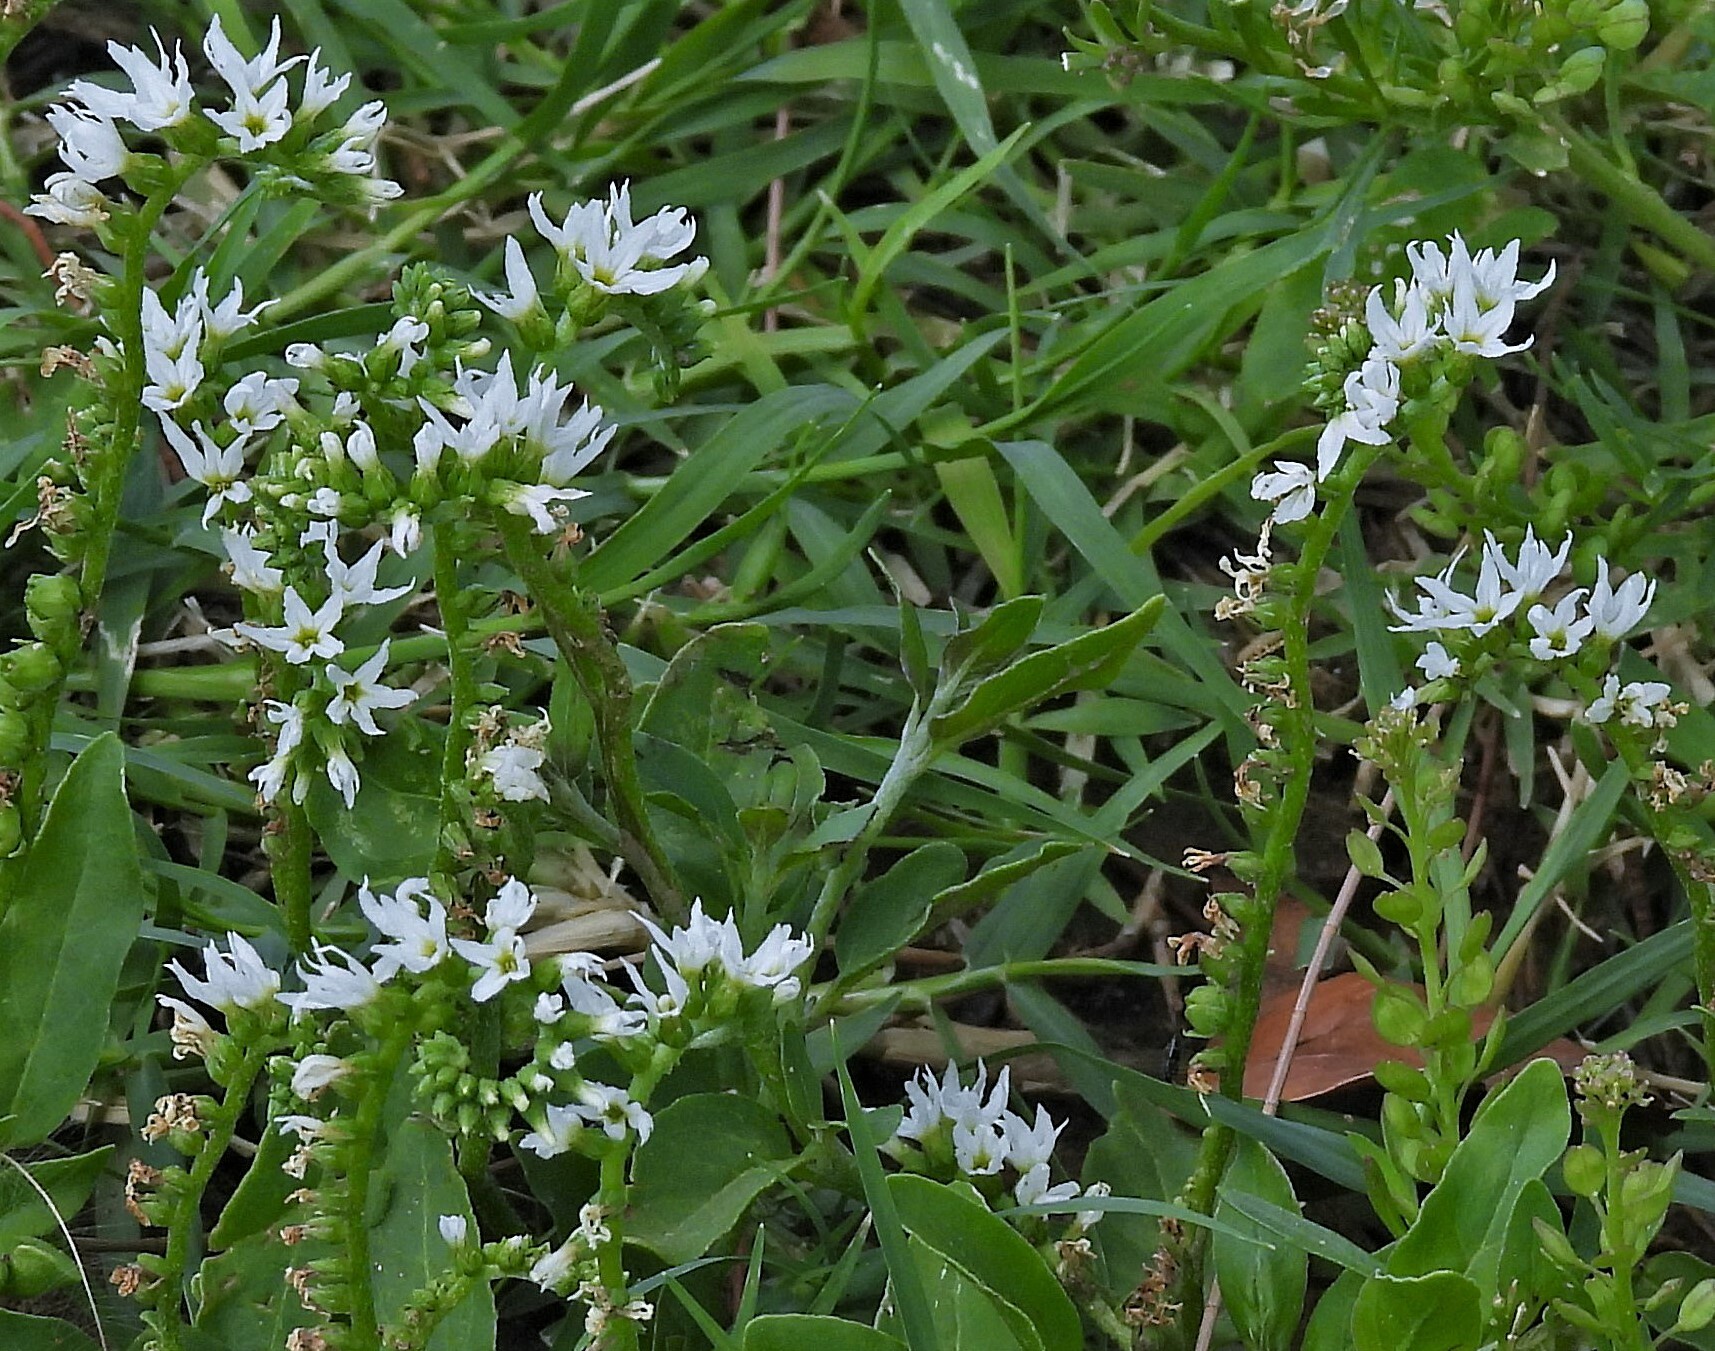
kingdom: Plantae
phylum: Tracheophyta
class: Magnoliopsida
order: Boraginales
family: Heliotropiaceae
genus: Euploca
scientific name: Euploca procumbens
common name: Fourspike heliotrope
